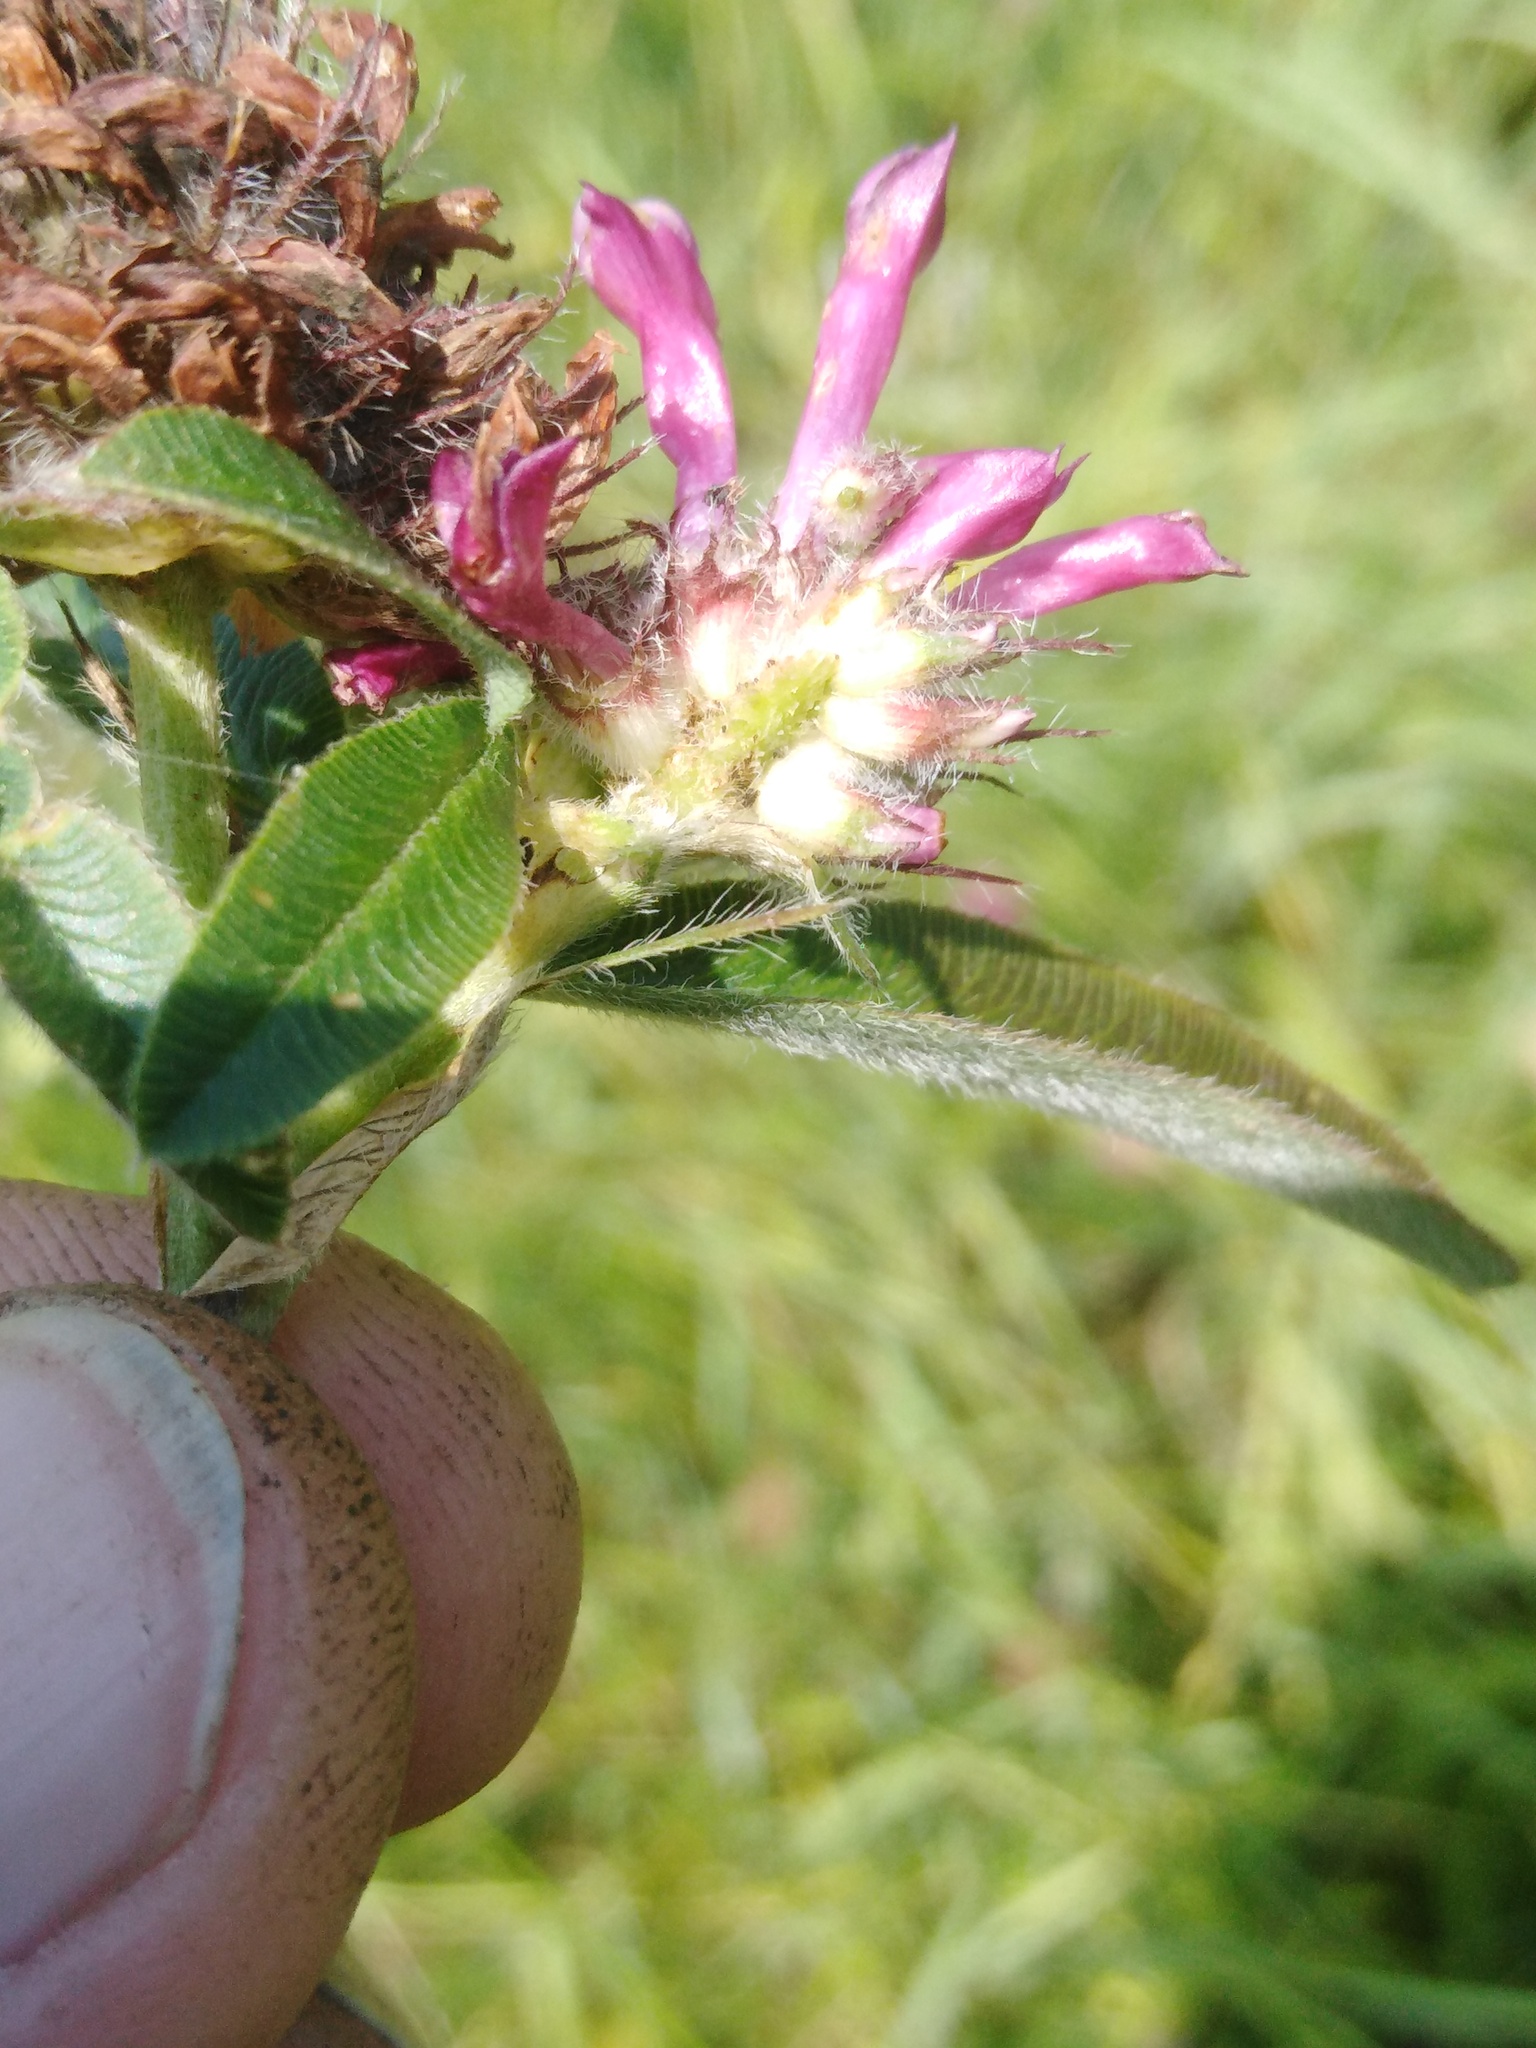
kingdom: Plantae
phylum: Tracheophyta
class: Magnoliopsida
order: Fabales
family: Fabaceae
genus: Trifolium
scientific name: Trifolium alpestre
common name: Owl-head clover
